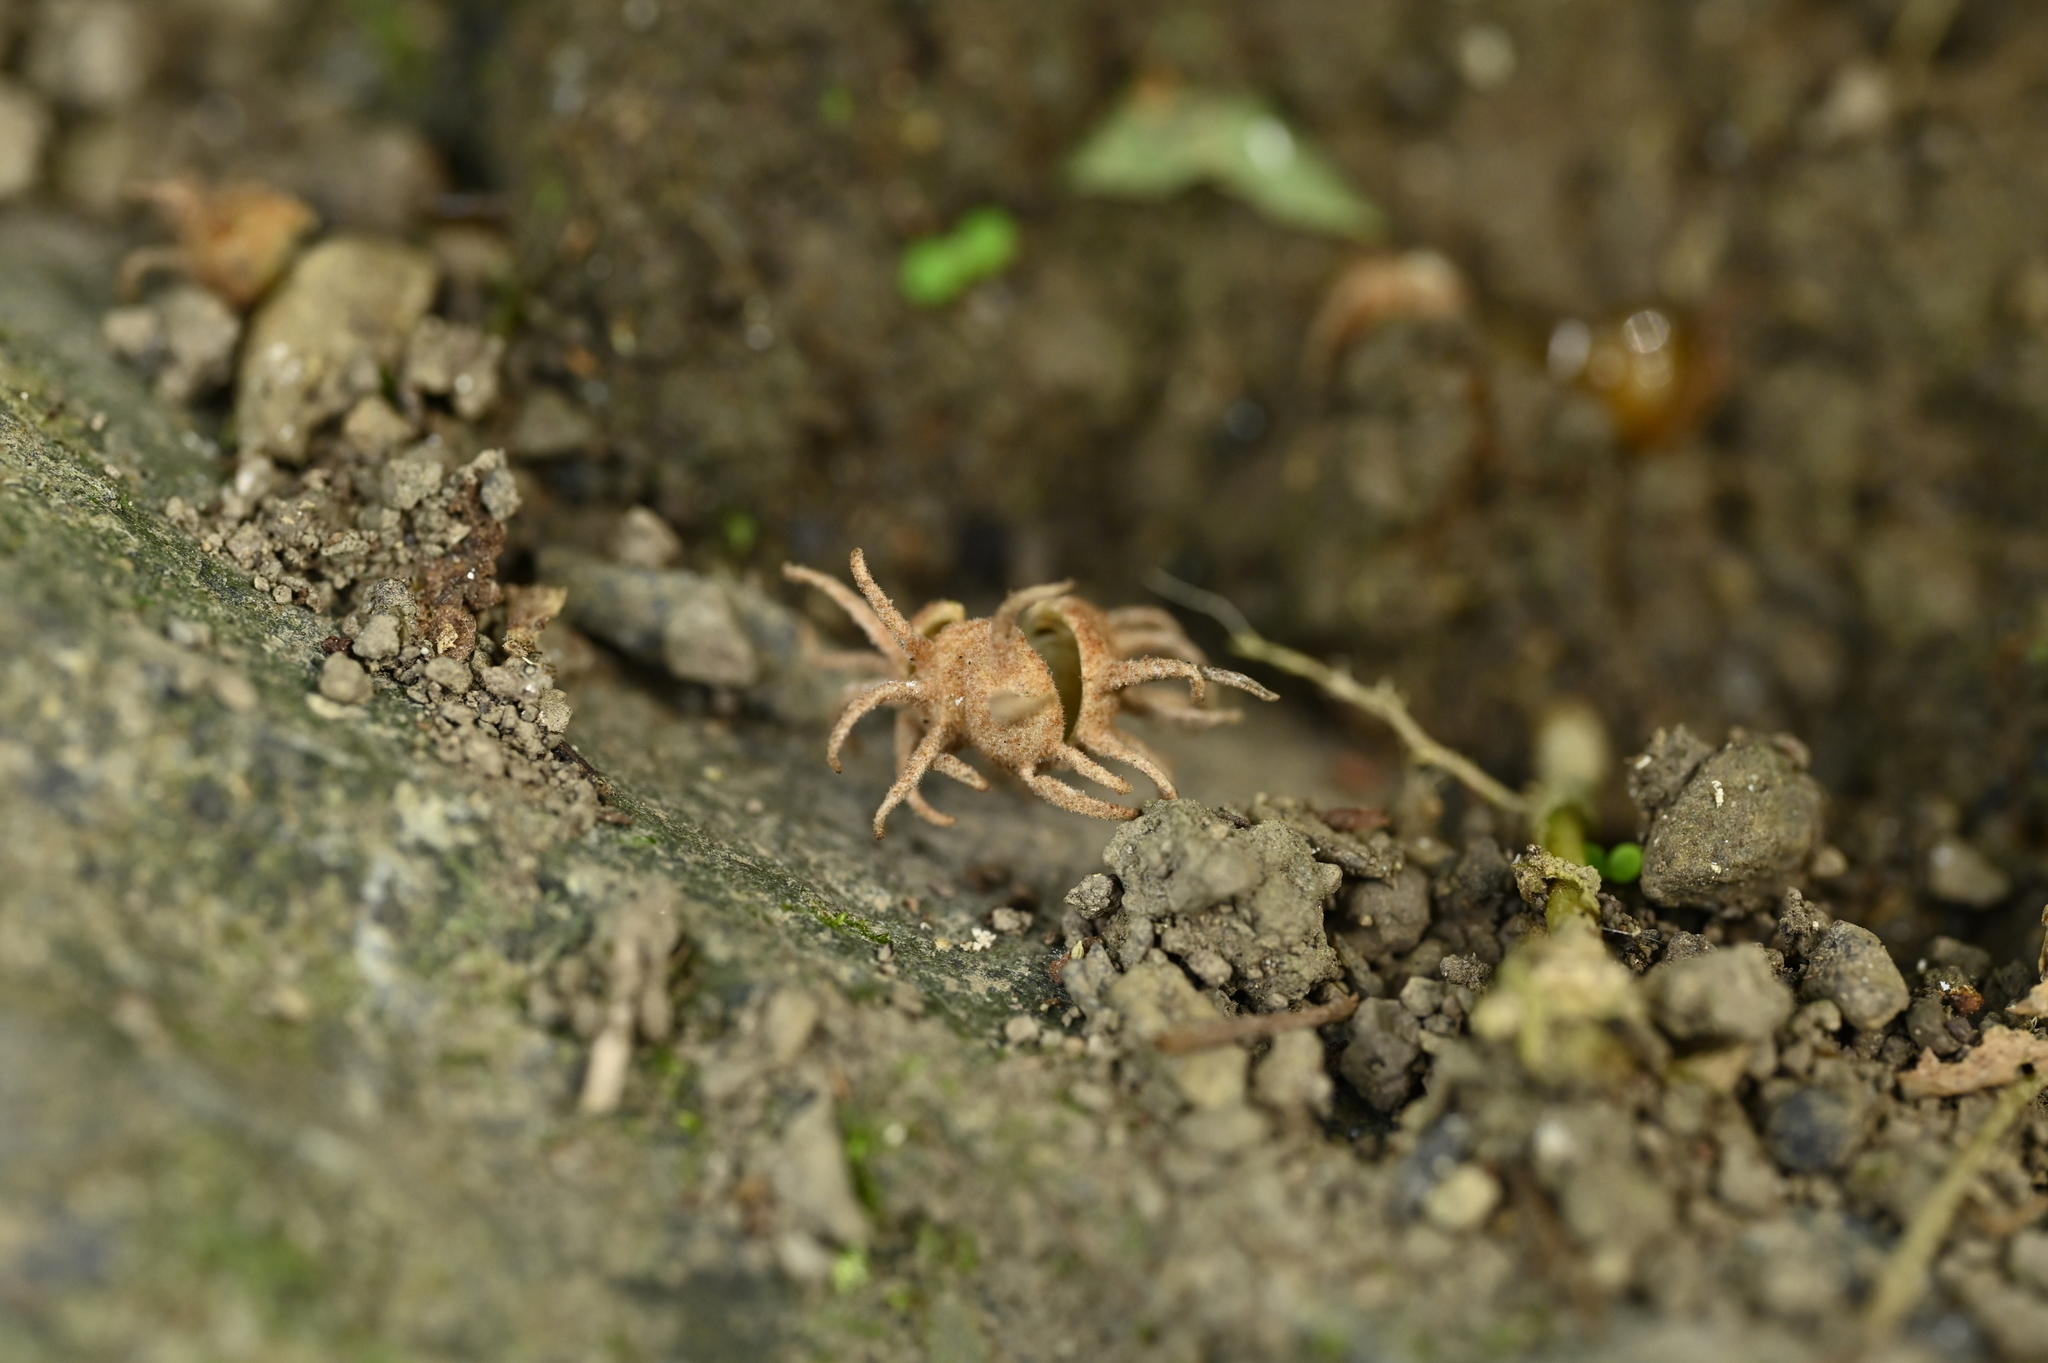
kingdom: Plantae
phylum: Tracheophyta
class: Magnoliopsida
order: Malpighiales
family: Euphorbiaceae
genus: Mallotus
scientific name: Mallotus paniculatus
